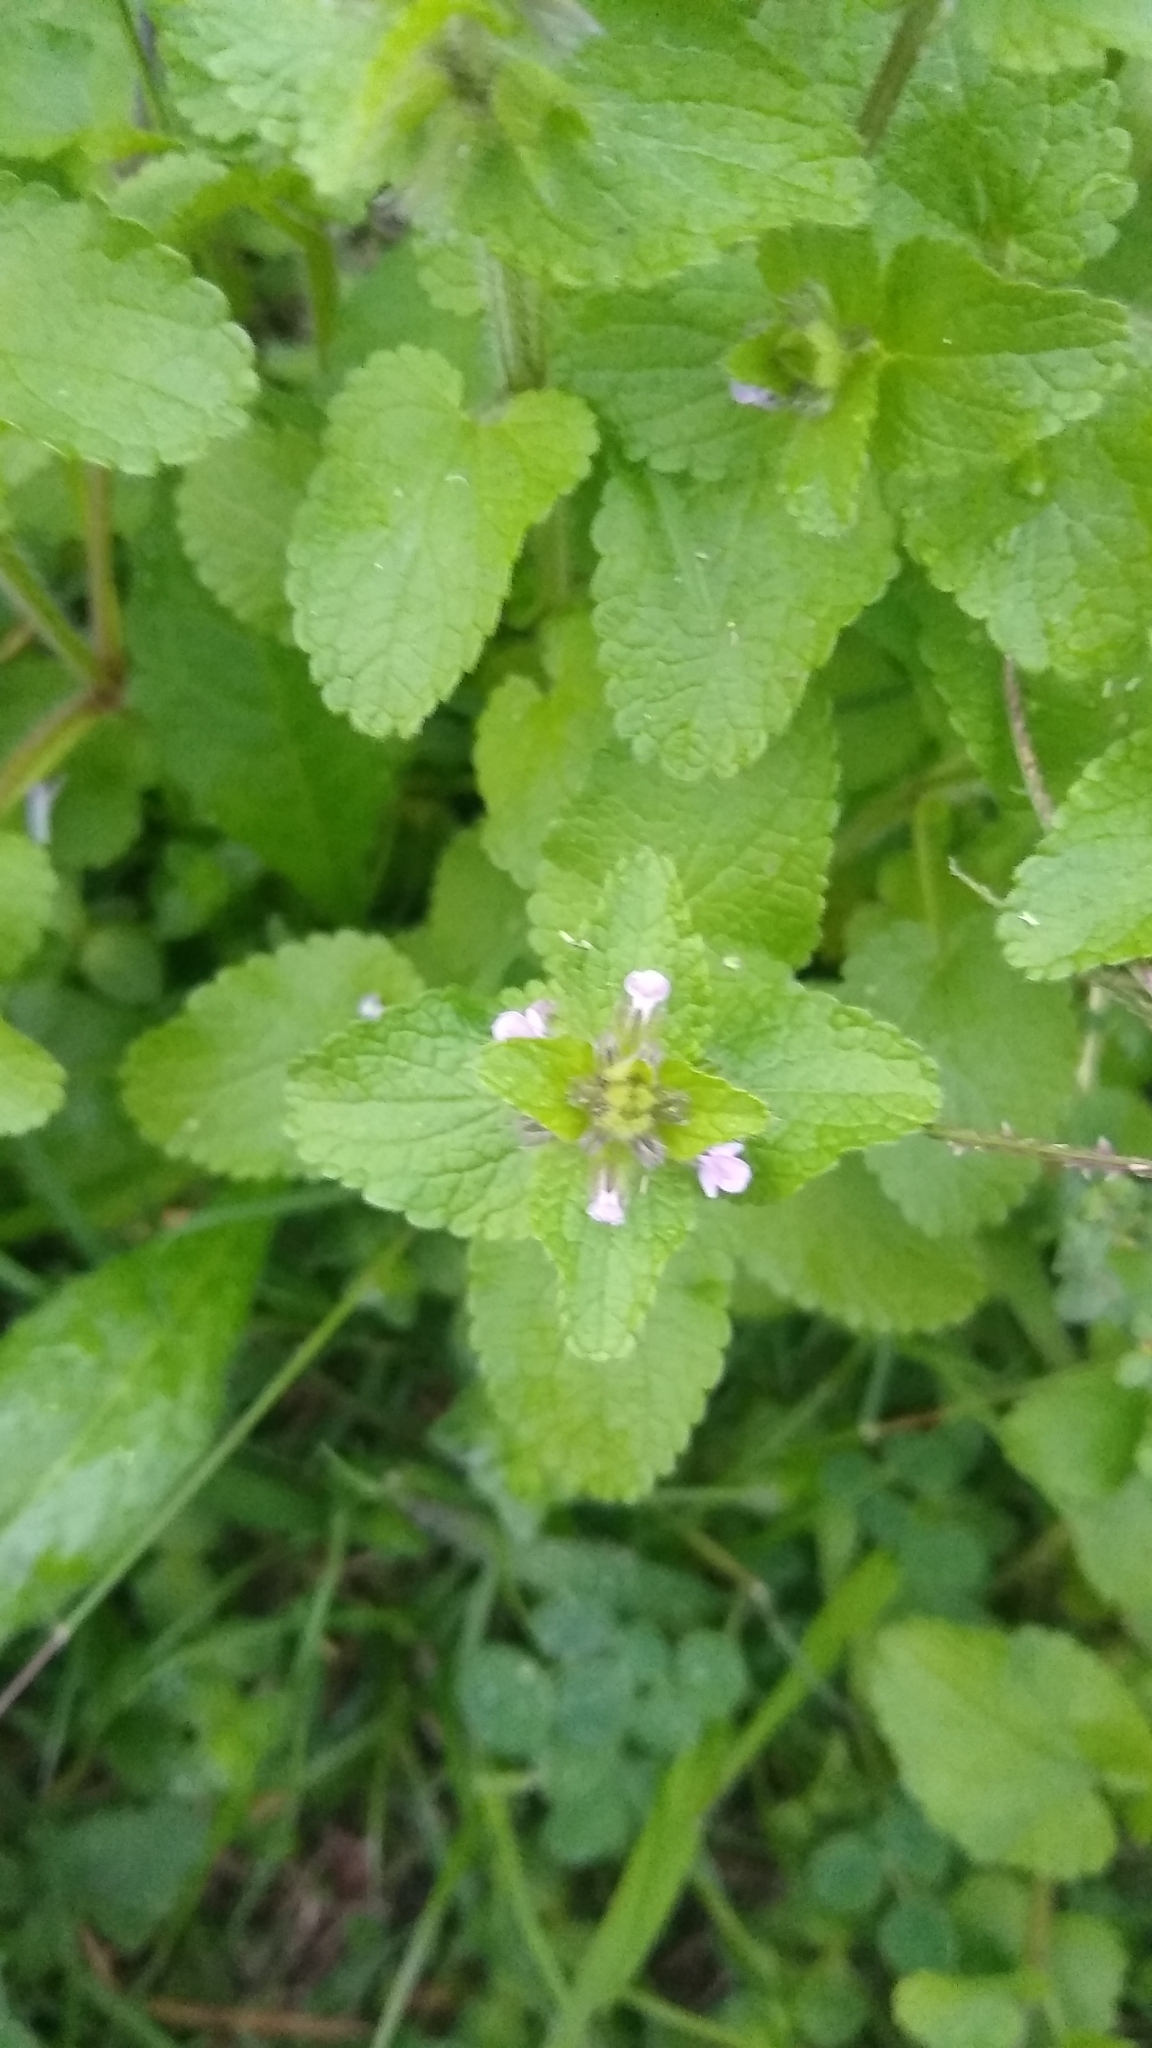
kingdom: Plantae
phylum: Tracheophyta
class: Magnoliopsida
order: Lamiales
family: Lamiaceae
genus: Stachys
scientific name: Stachys arvensis
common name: Field woundwort
